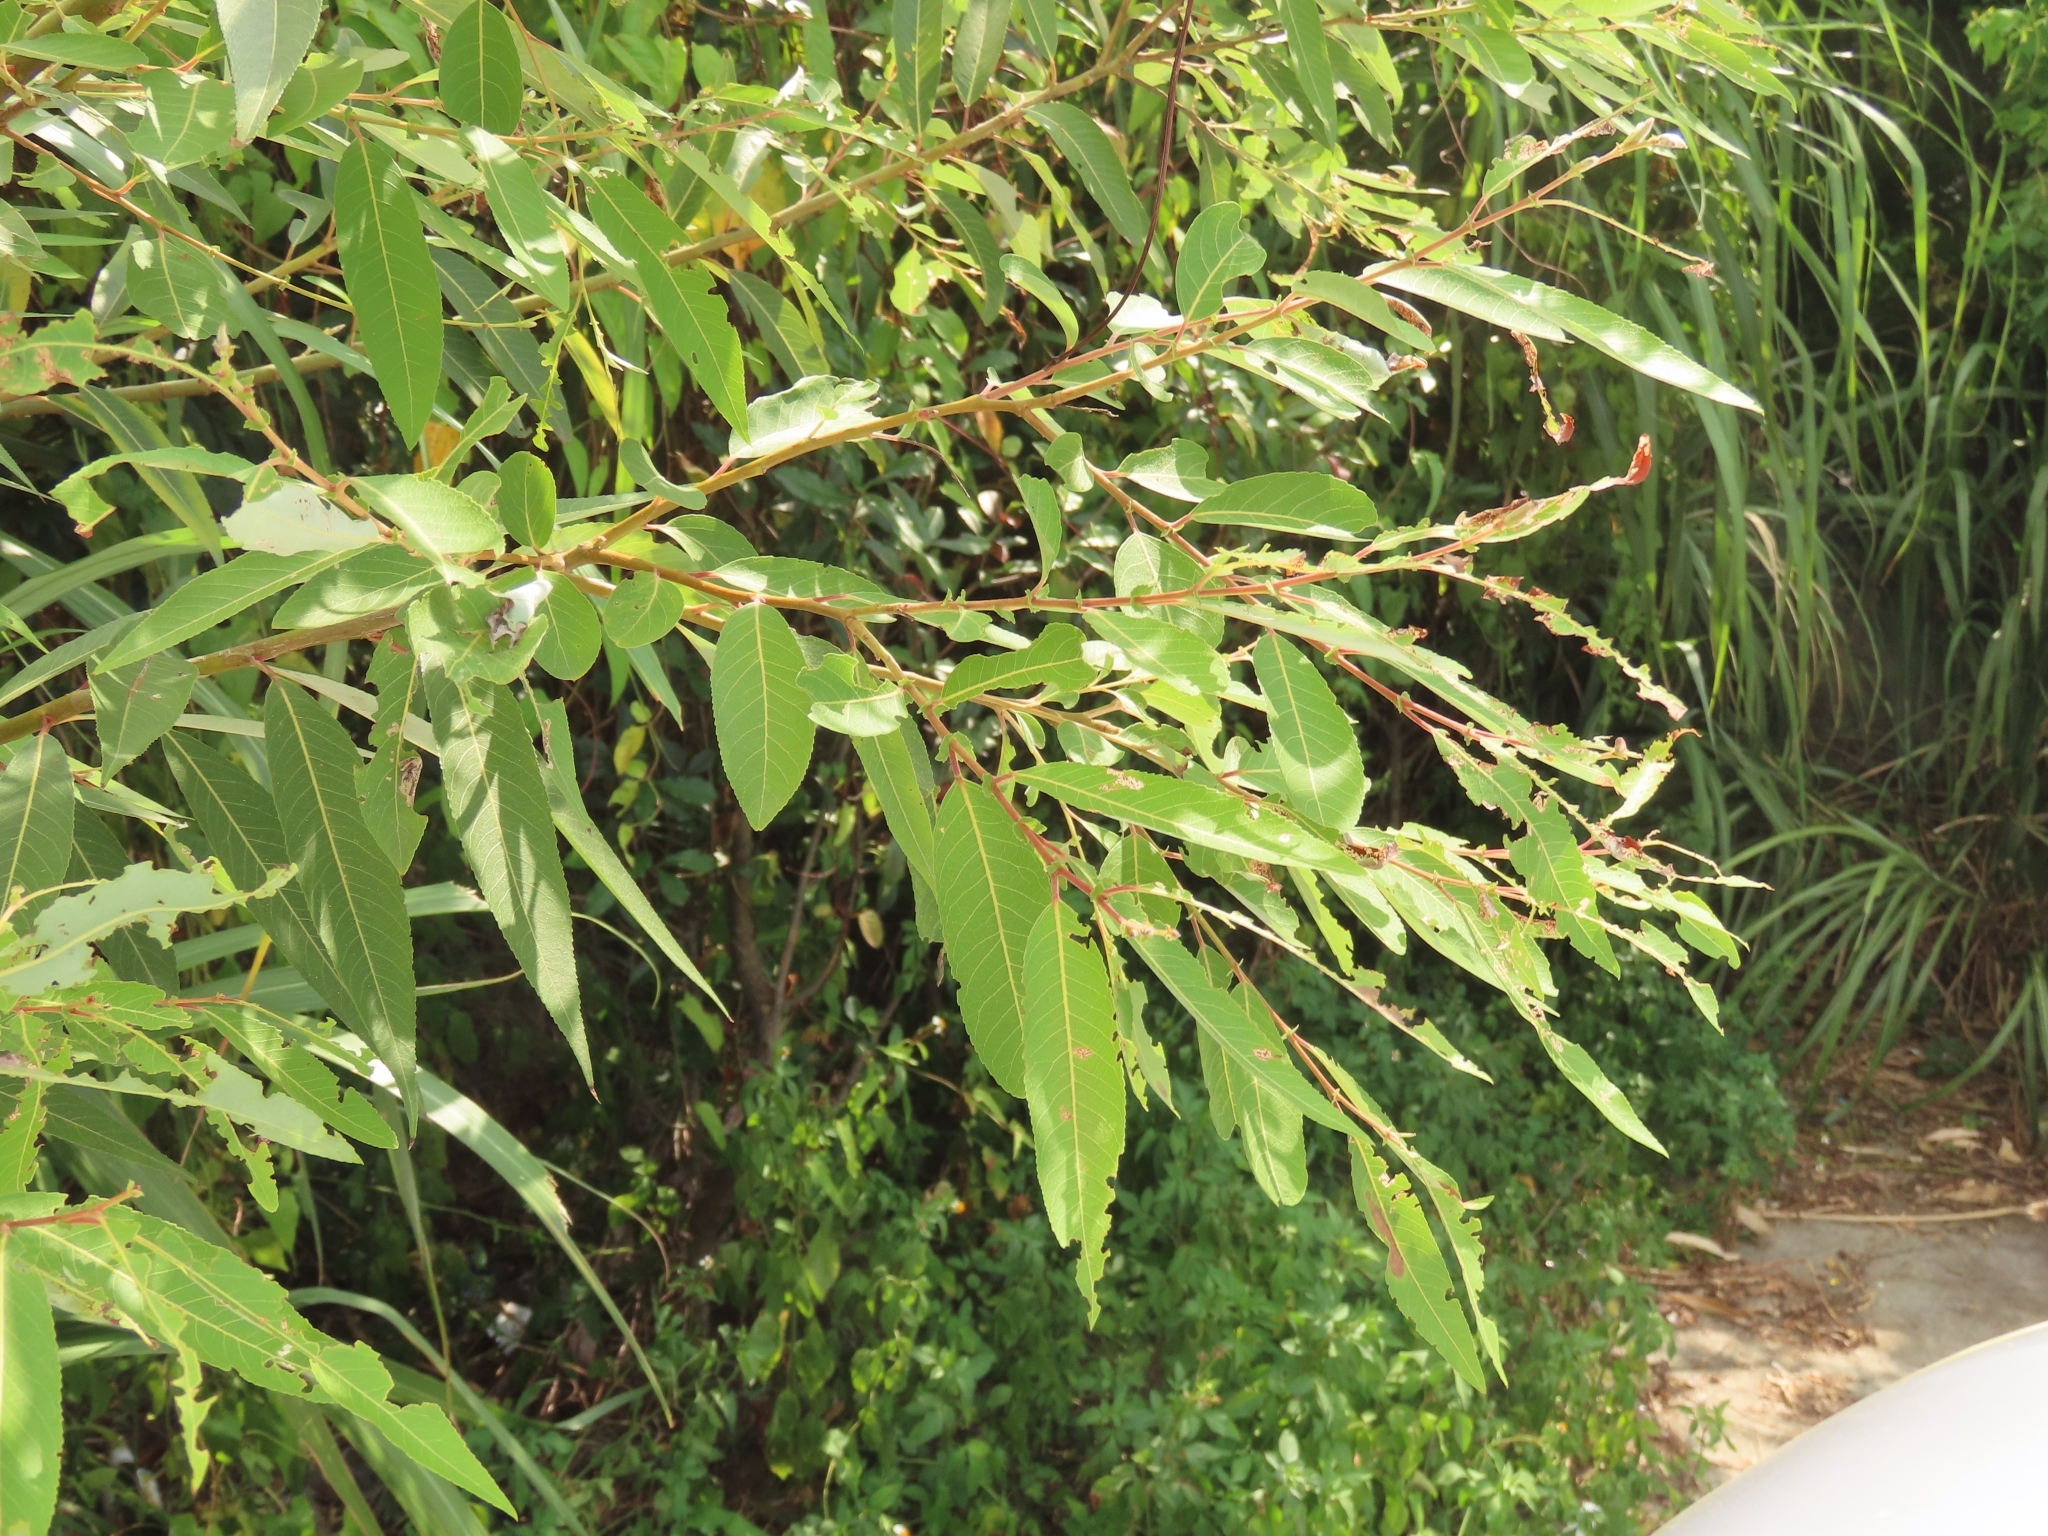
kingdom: Plantae
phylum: Tracheophyta
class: Magnoliopsida
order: Malpighiales
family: Salicaceae
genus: Salix
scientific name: Salix mesnyi
